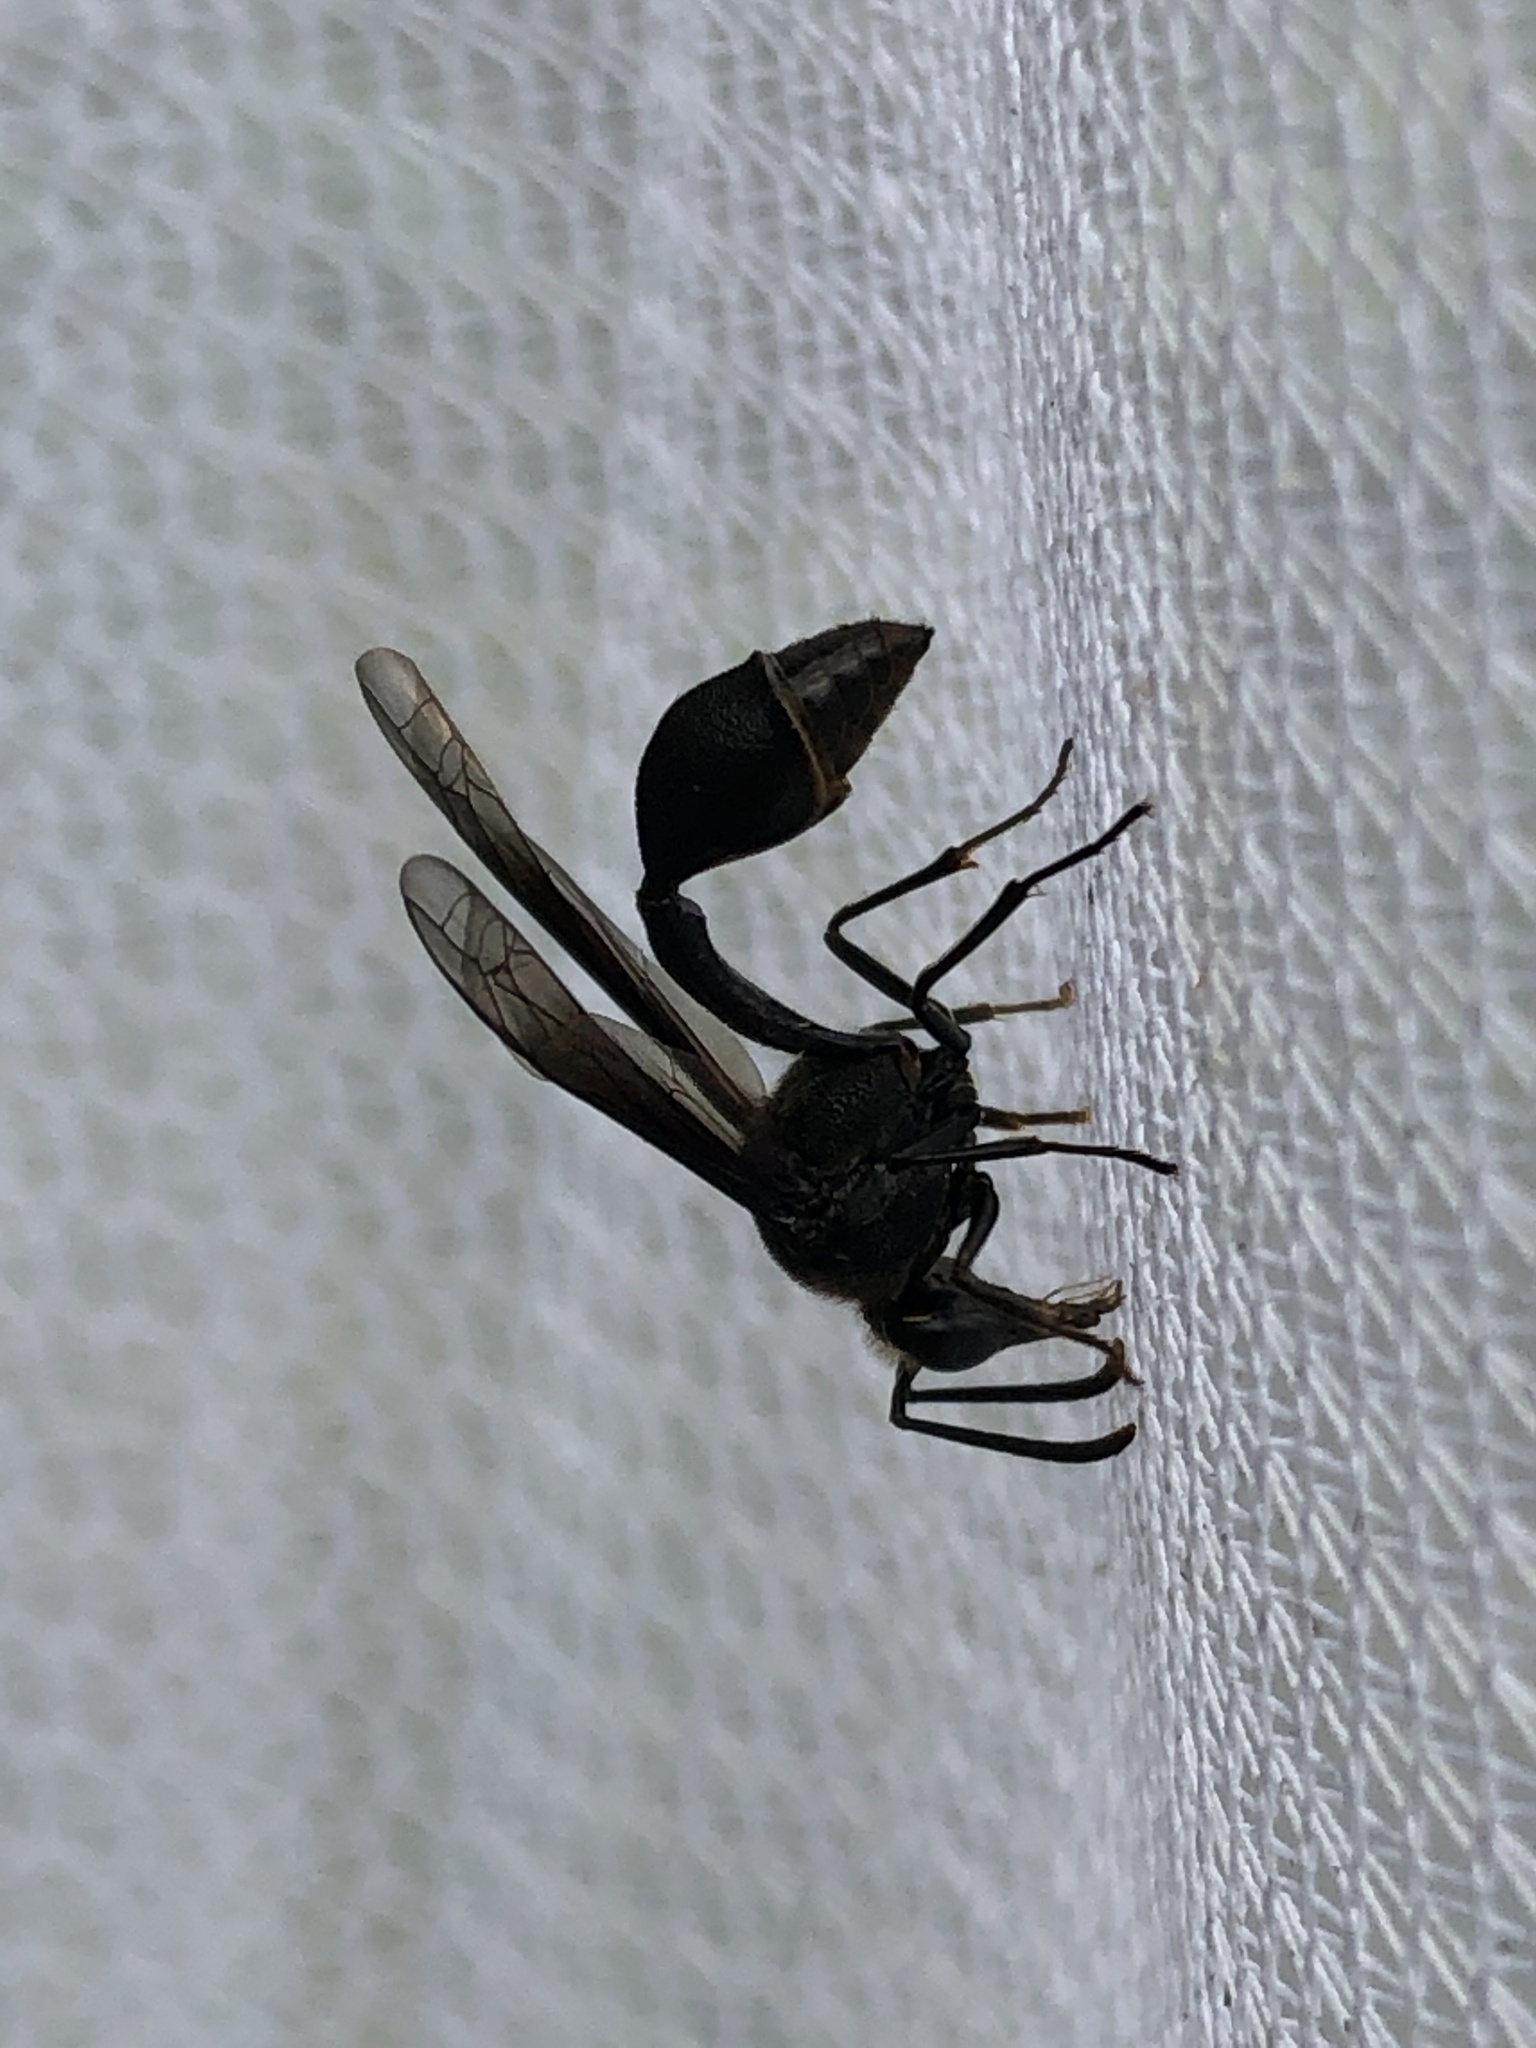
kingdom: Animalia
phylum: Arthropoda
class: Insecta
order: Hymenoptera
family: Vespidae
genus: Eumenes
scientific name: Eumenes filiformis
